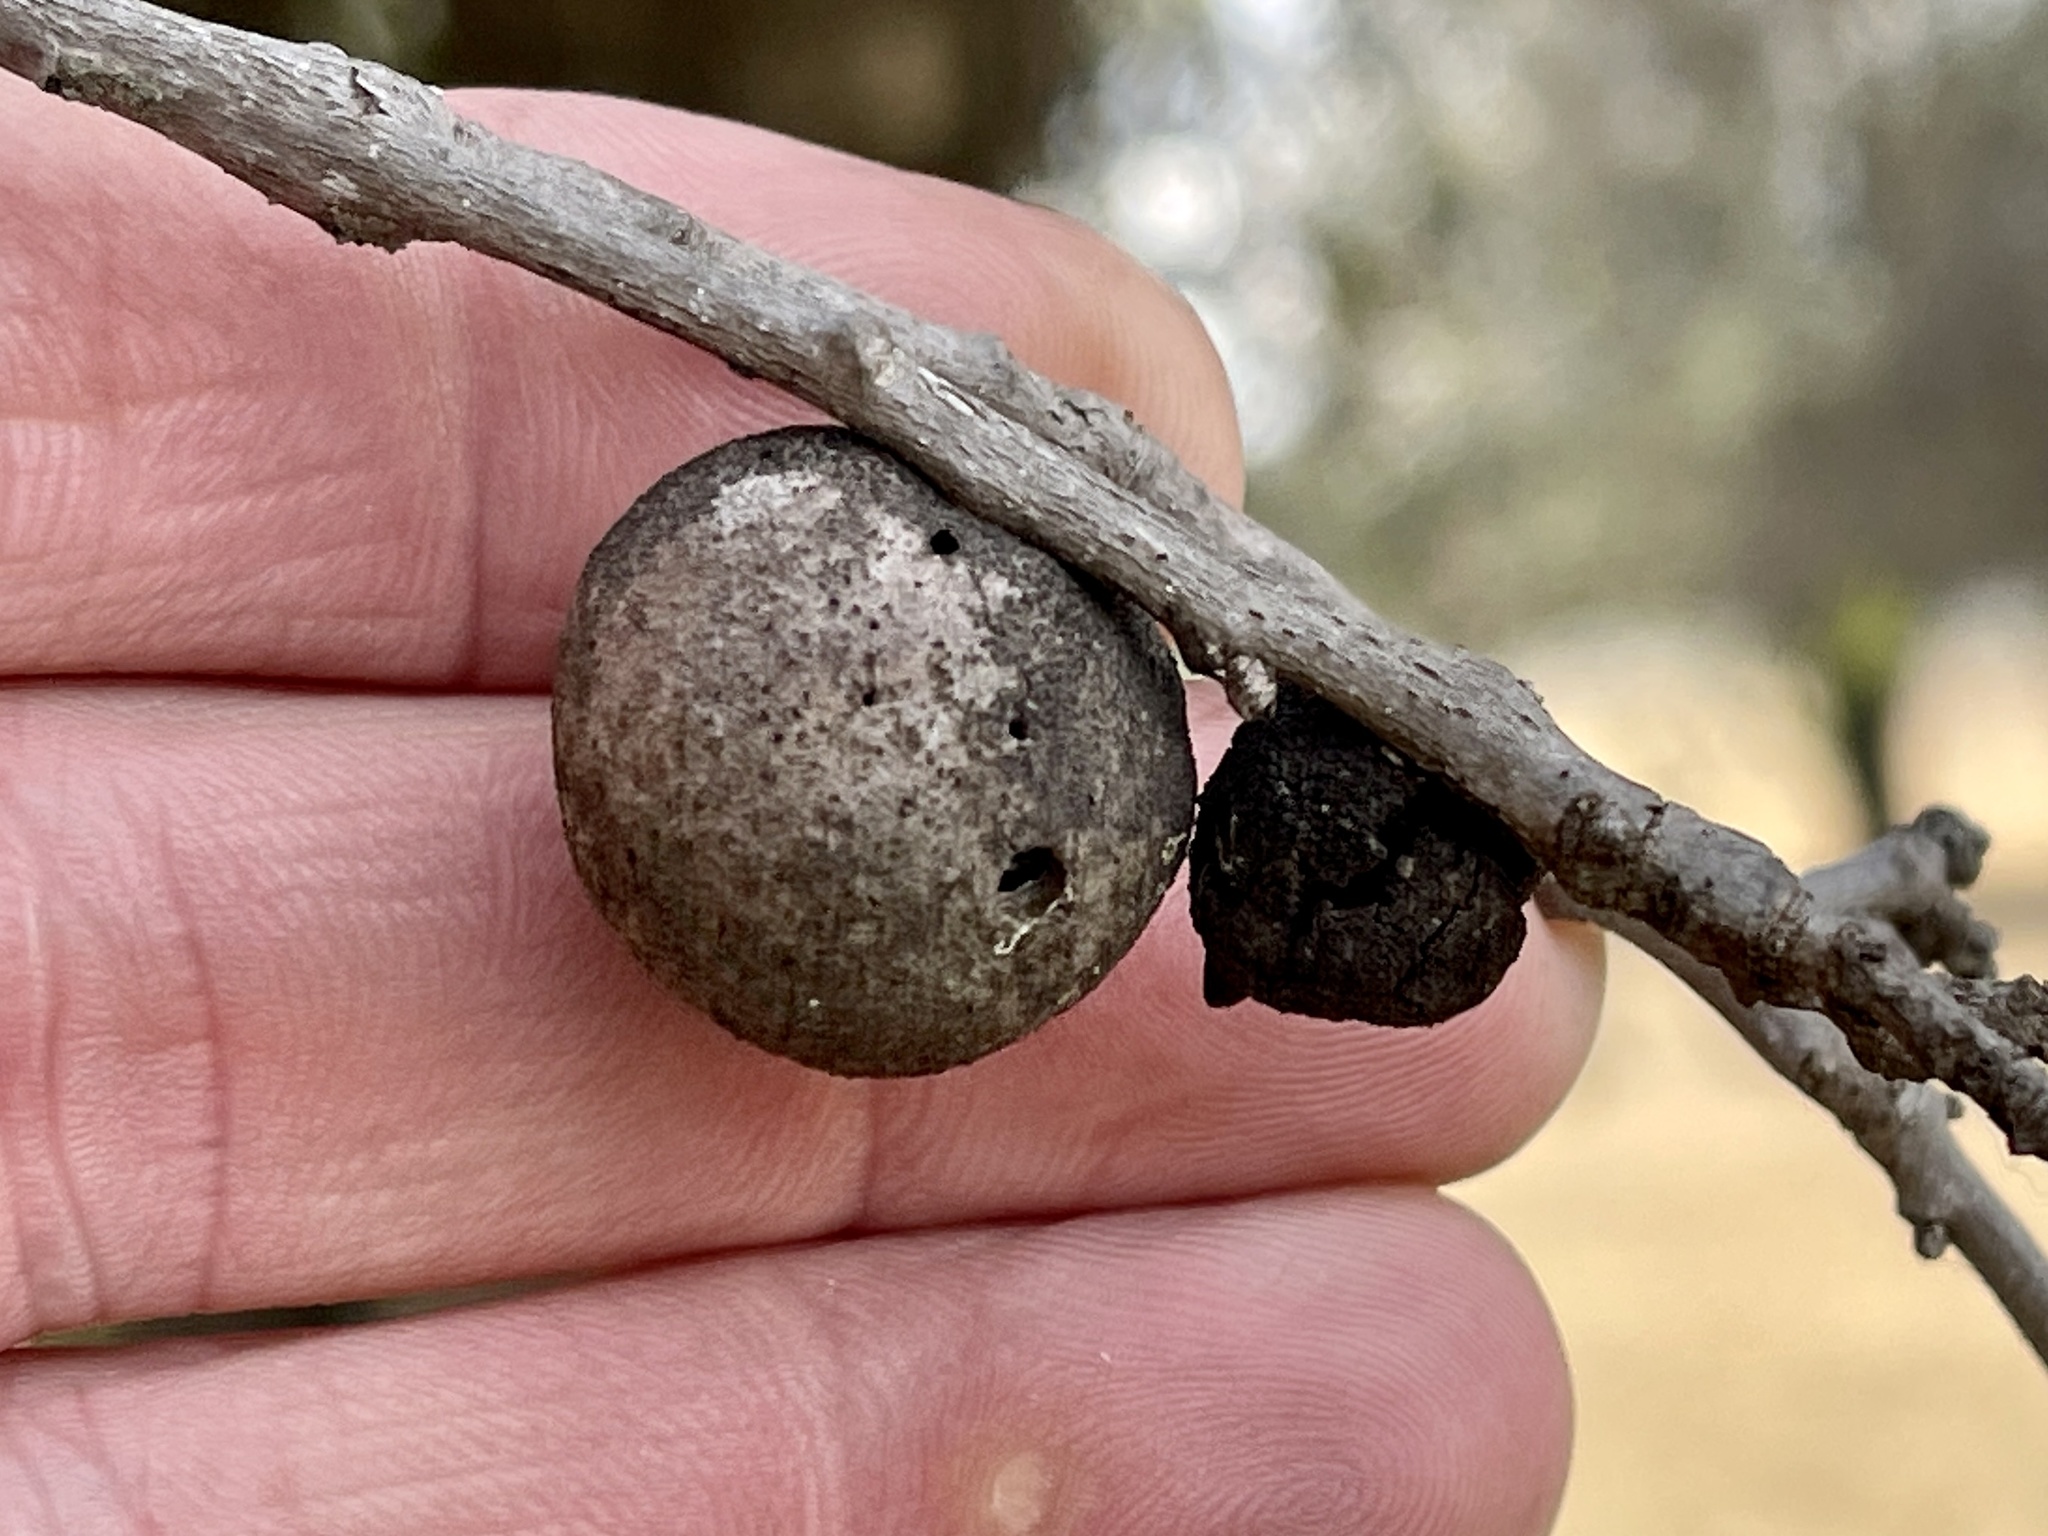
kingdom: Animalia
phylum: Arthropoda
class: Insecta
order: Hymenoptera
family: Cynipidae
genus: Disholcaspis
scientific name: Disholcaspis
